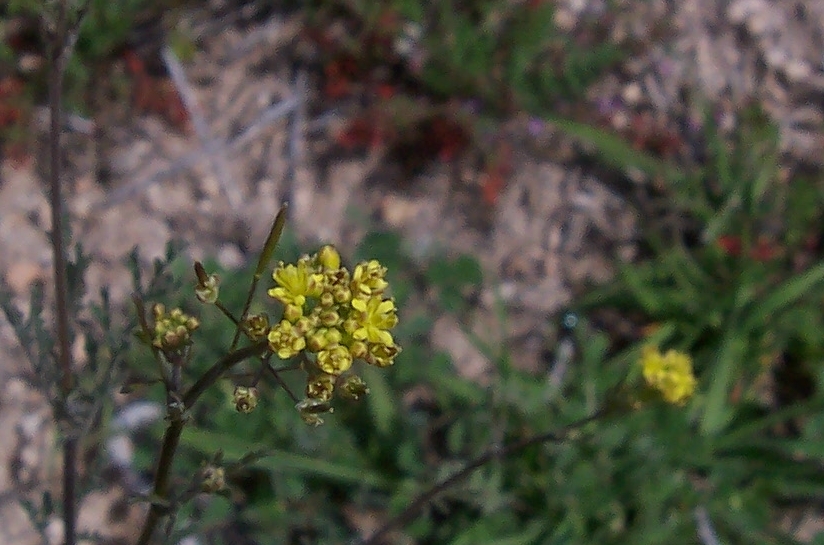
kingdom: Plantae
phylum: Tracheophyta
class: Magnoliopsida
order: Brassicales
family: Brassicaceae
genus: Descurainia
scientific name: Descurainia pinnata
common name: Western tansy mustard
